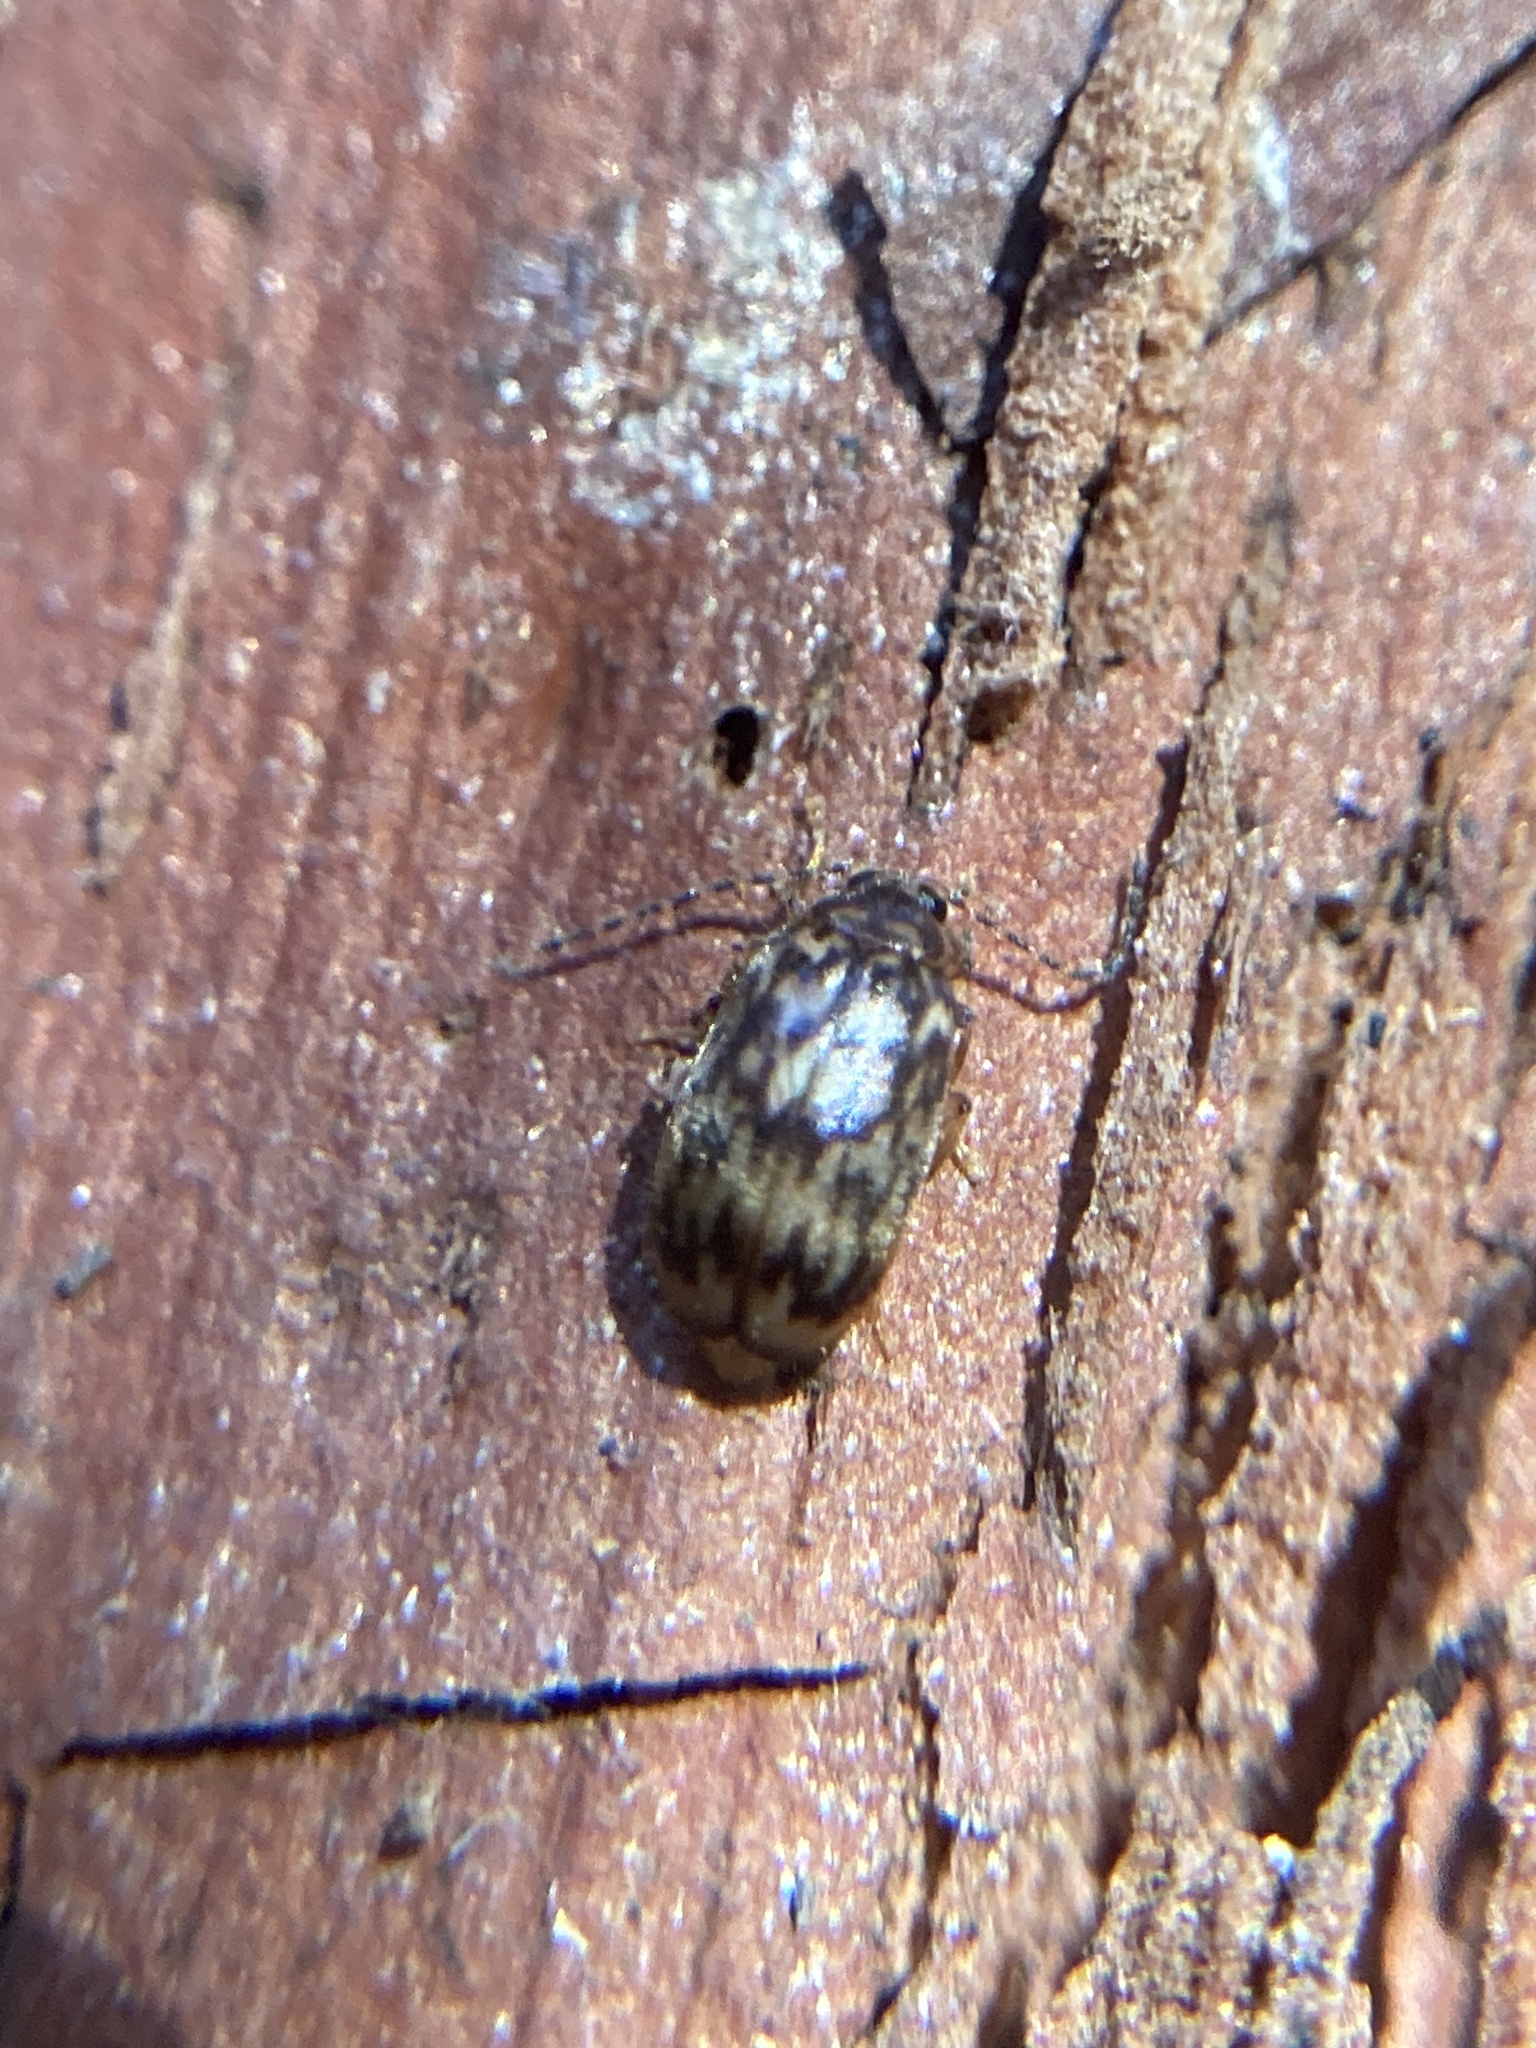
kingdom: Animalia
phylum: Arthropoda
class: Insecta
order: Coleoptera
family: Chrysomelidae
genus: Candezea
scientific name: Candezea
